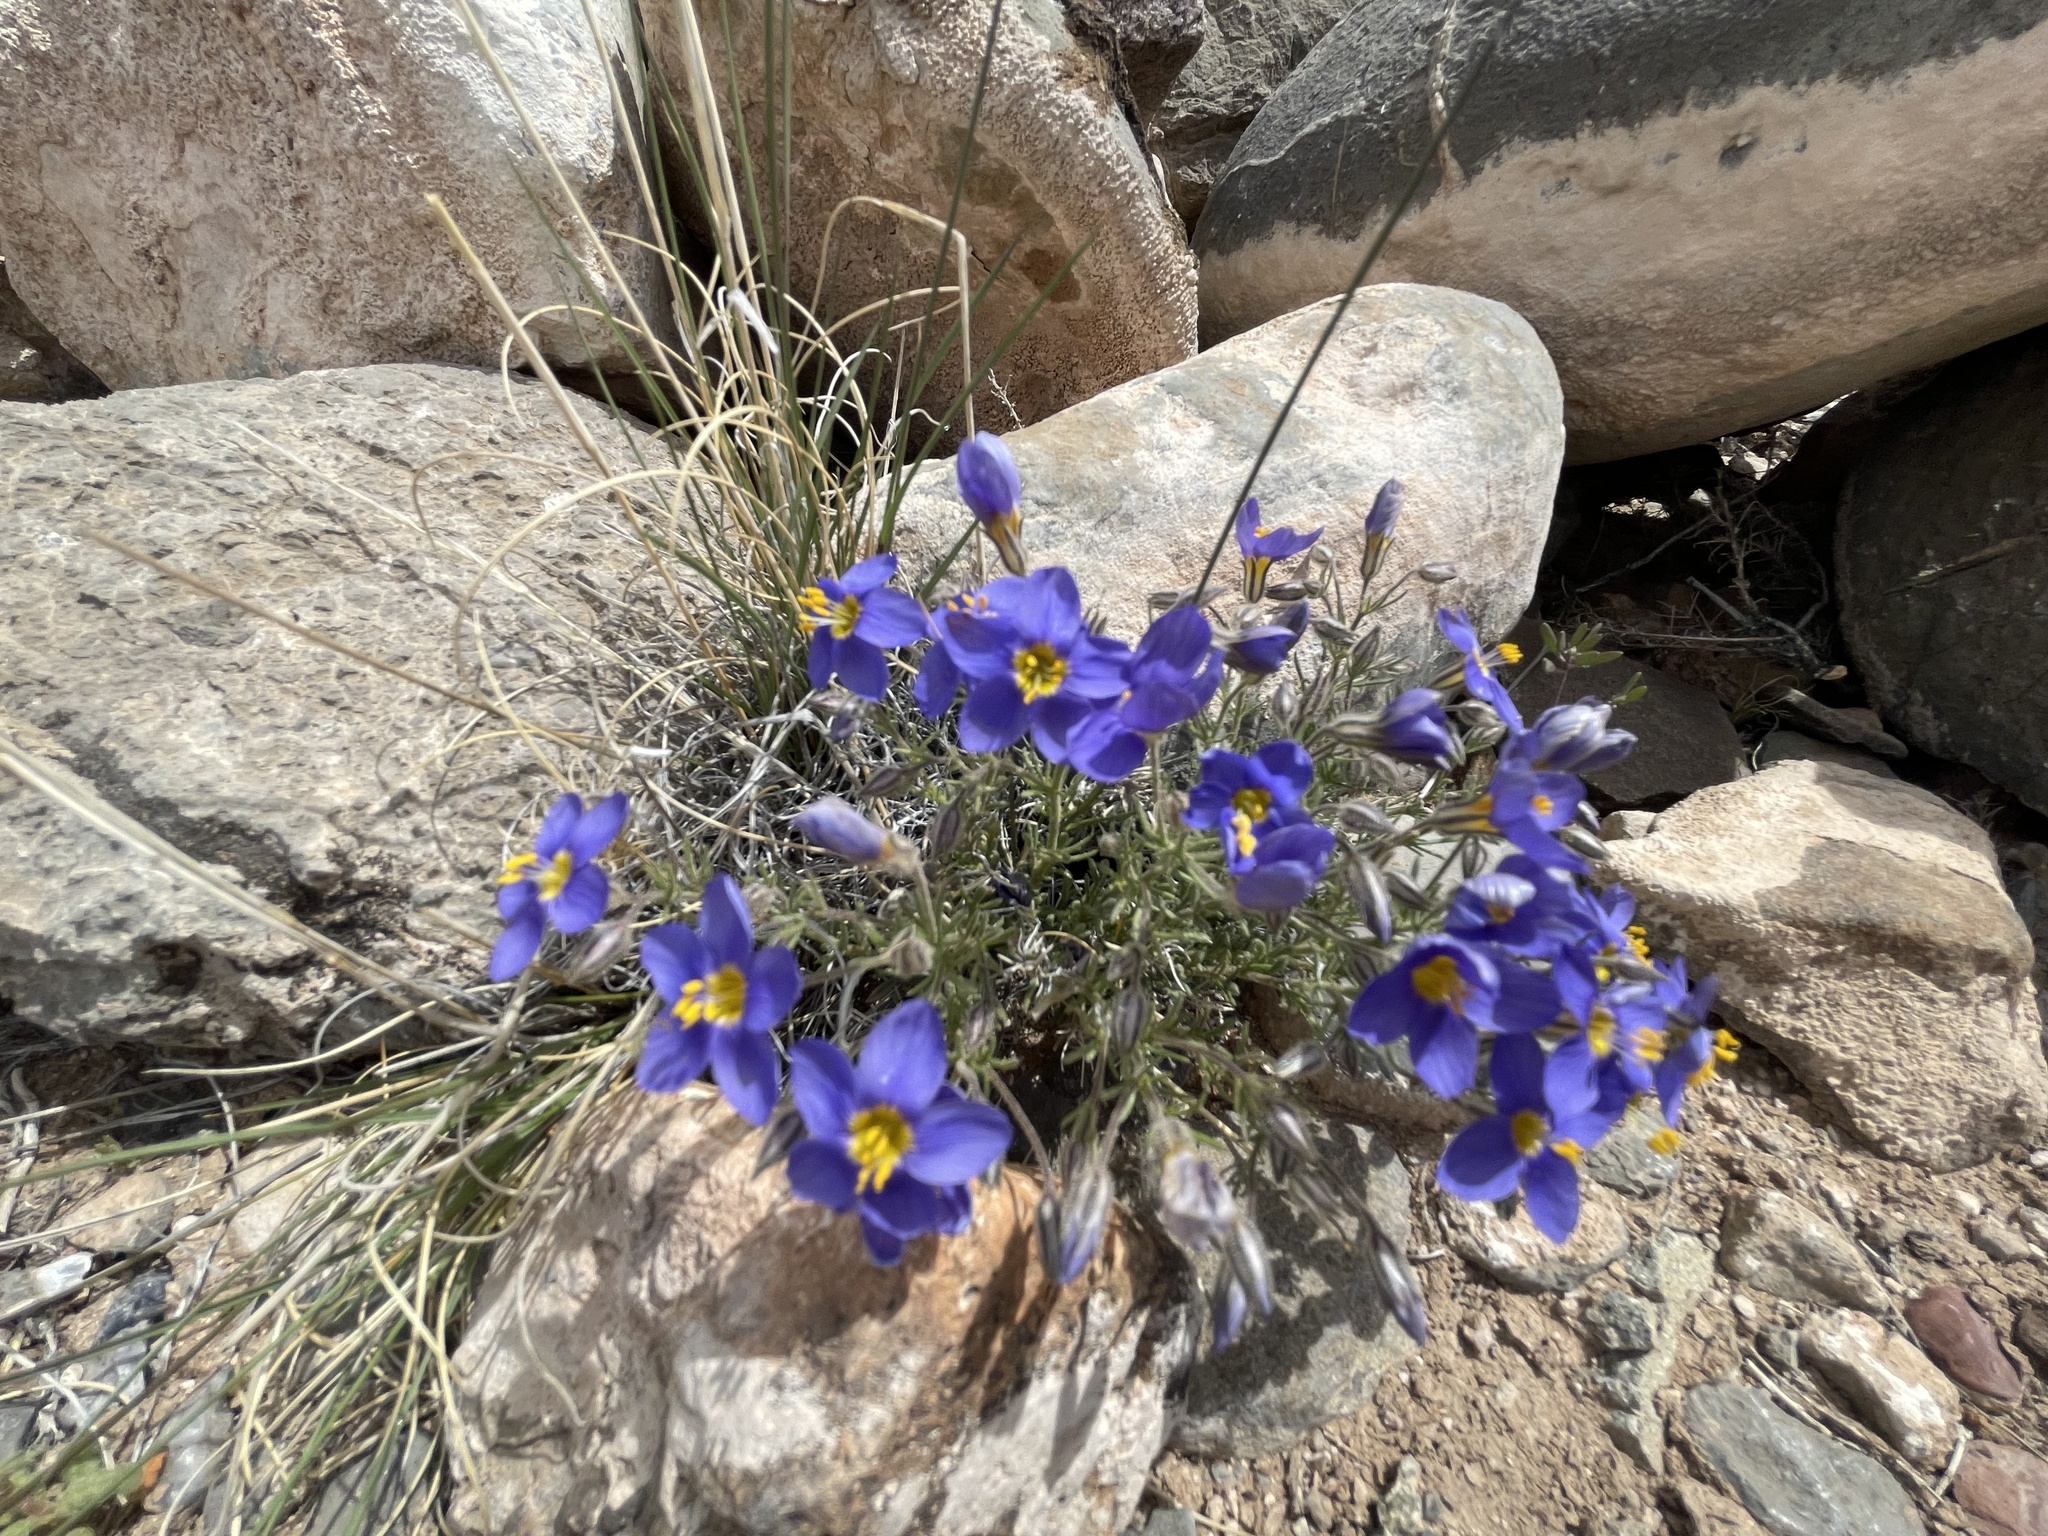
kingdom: Plantae
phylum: Tracheophyta
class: Magnoliopsida
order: Ericales
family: Polemoniaceae
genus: Giliastrum
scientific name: Giliastrum acerosum
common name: Bluebowls
